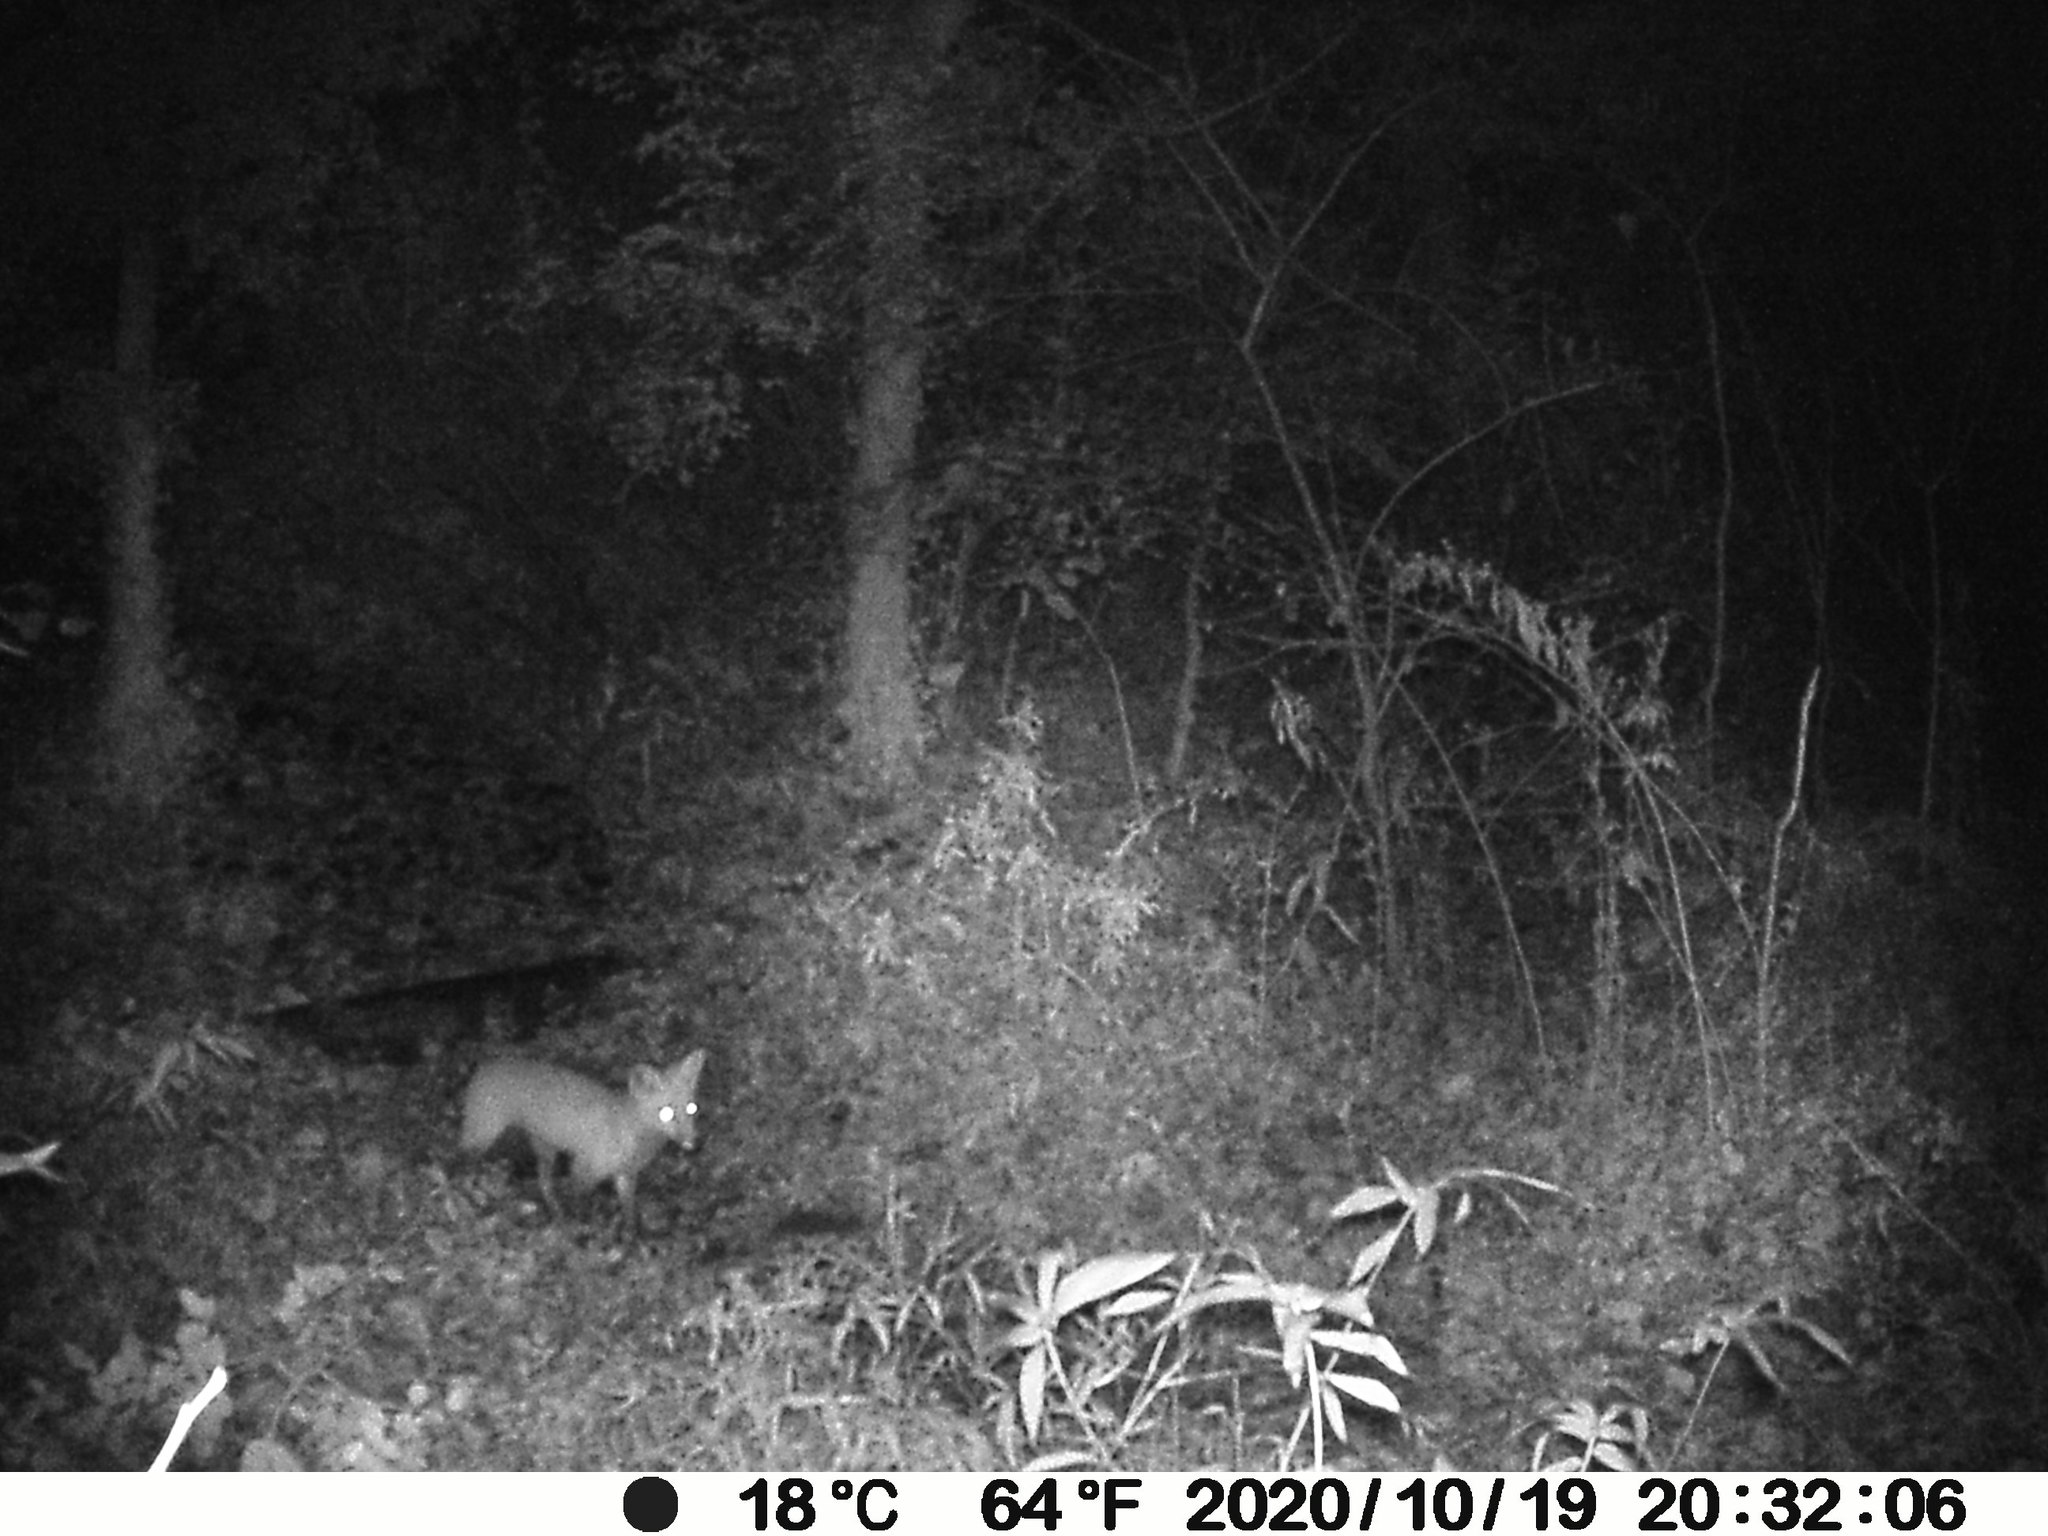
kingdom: Animalia
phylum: Chordata
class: Mammalia
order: Carnivora
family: Canidae
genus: Vulpes
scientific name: Vulpes vulpes
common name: Red fox
